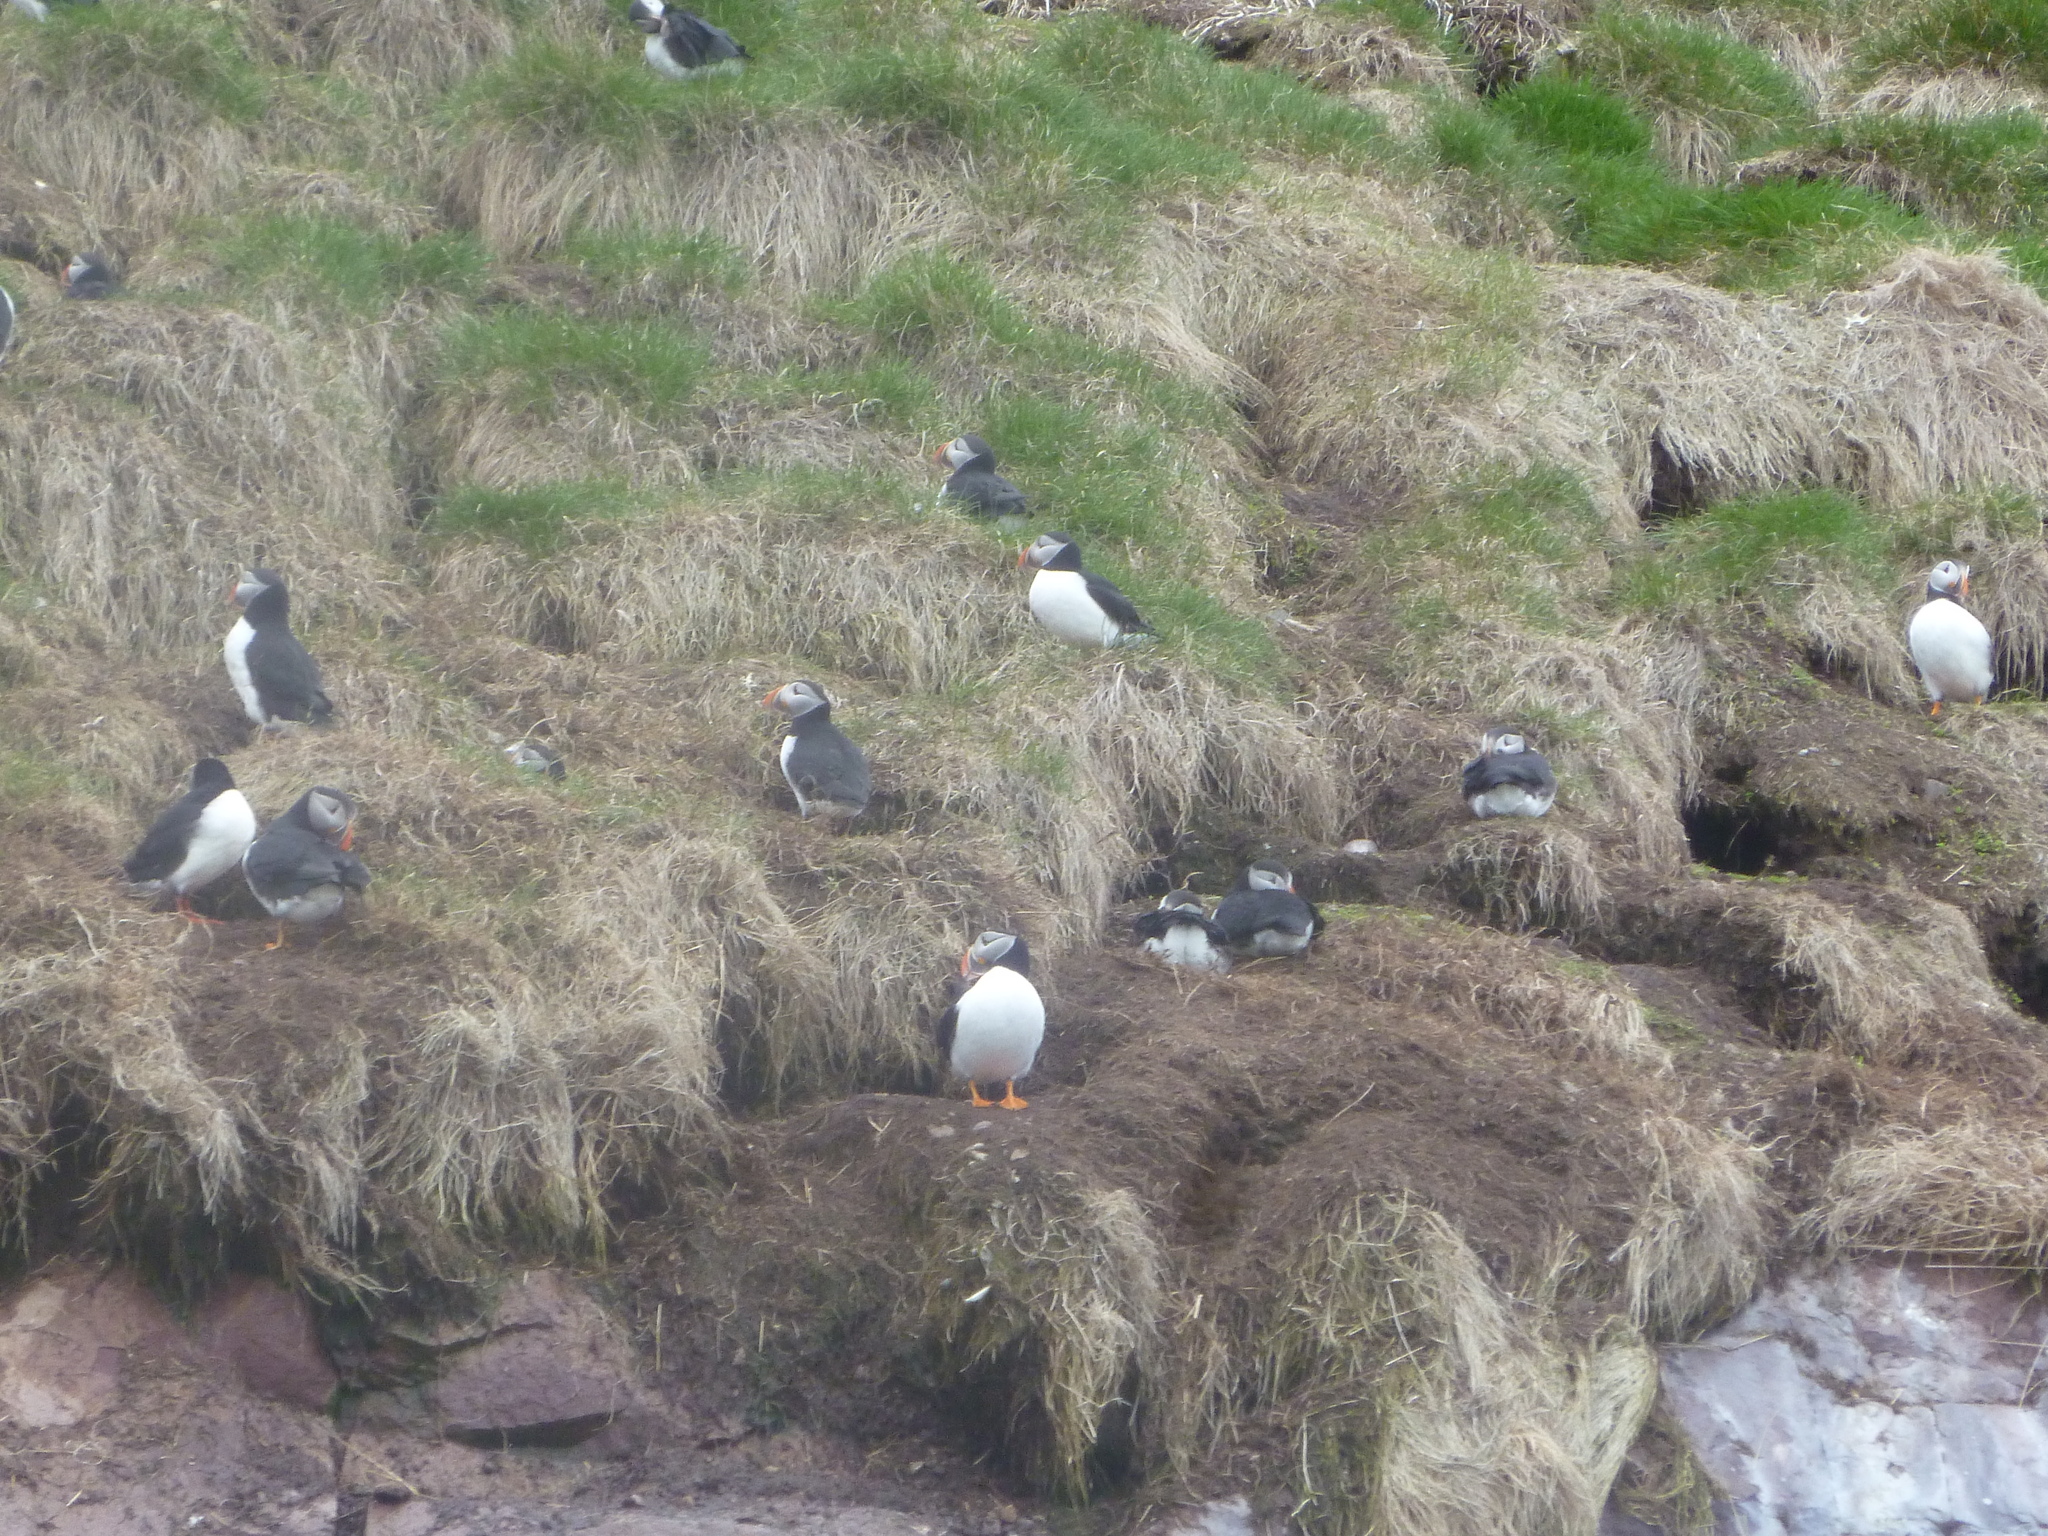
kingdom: Animalia
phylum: Chordata
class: Aves
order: Charadriiformes
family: Alcidae
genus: Fratercula
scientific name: Fratercula arctica
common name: Atlantic puffin
